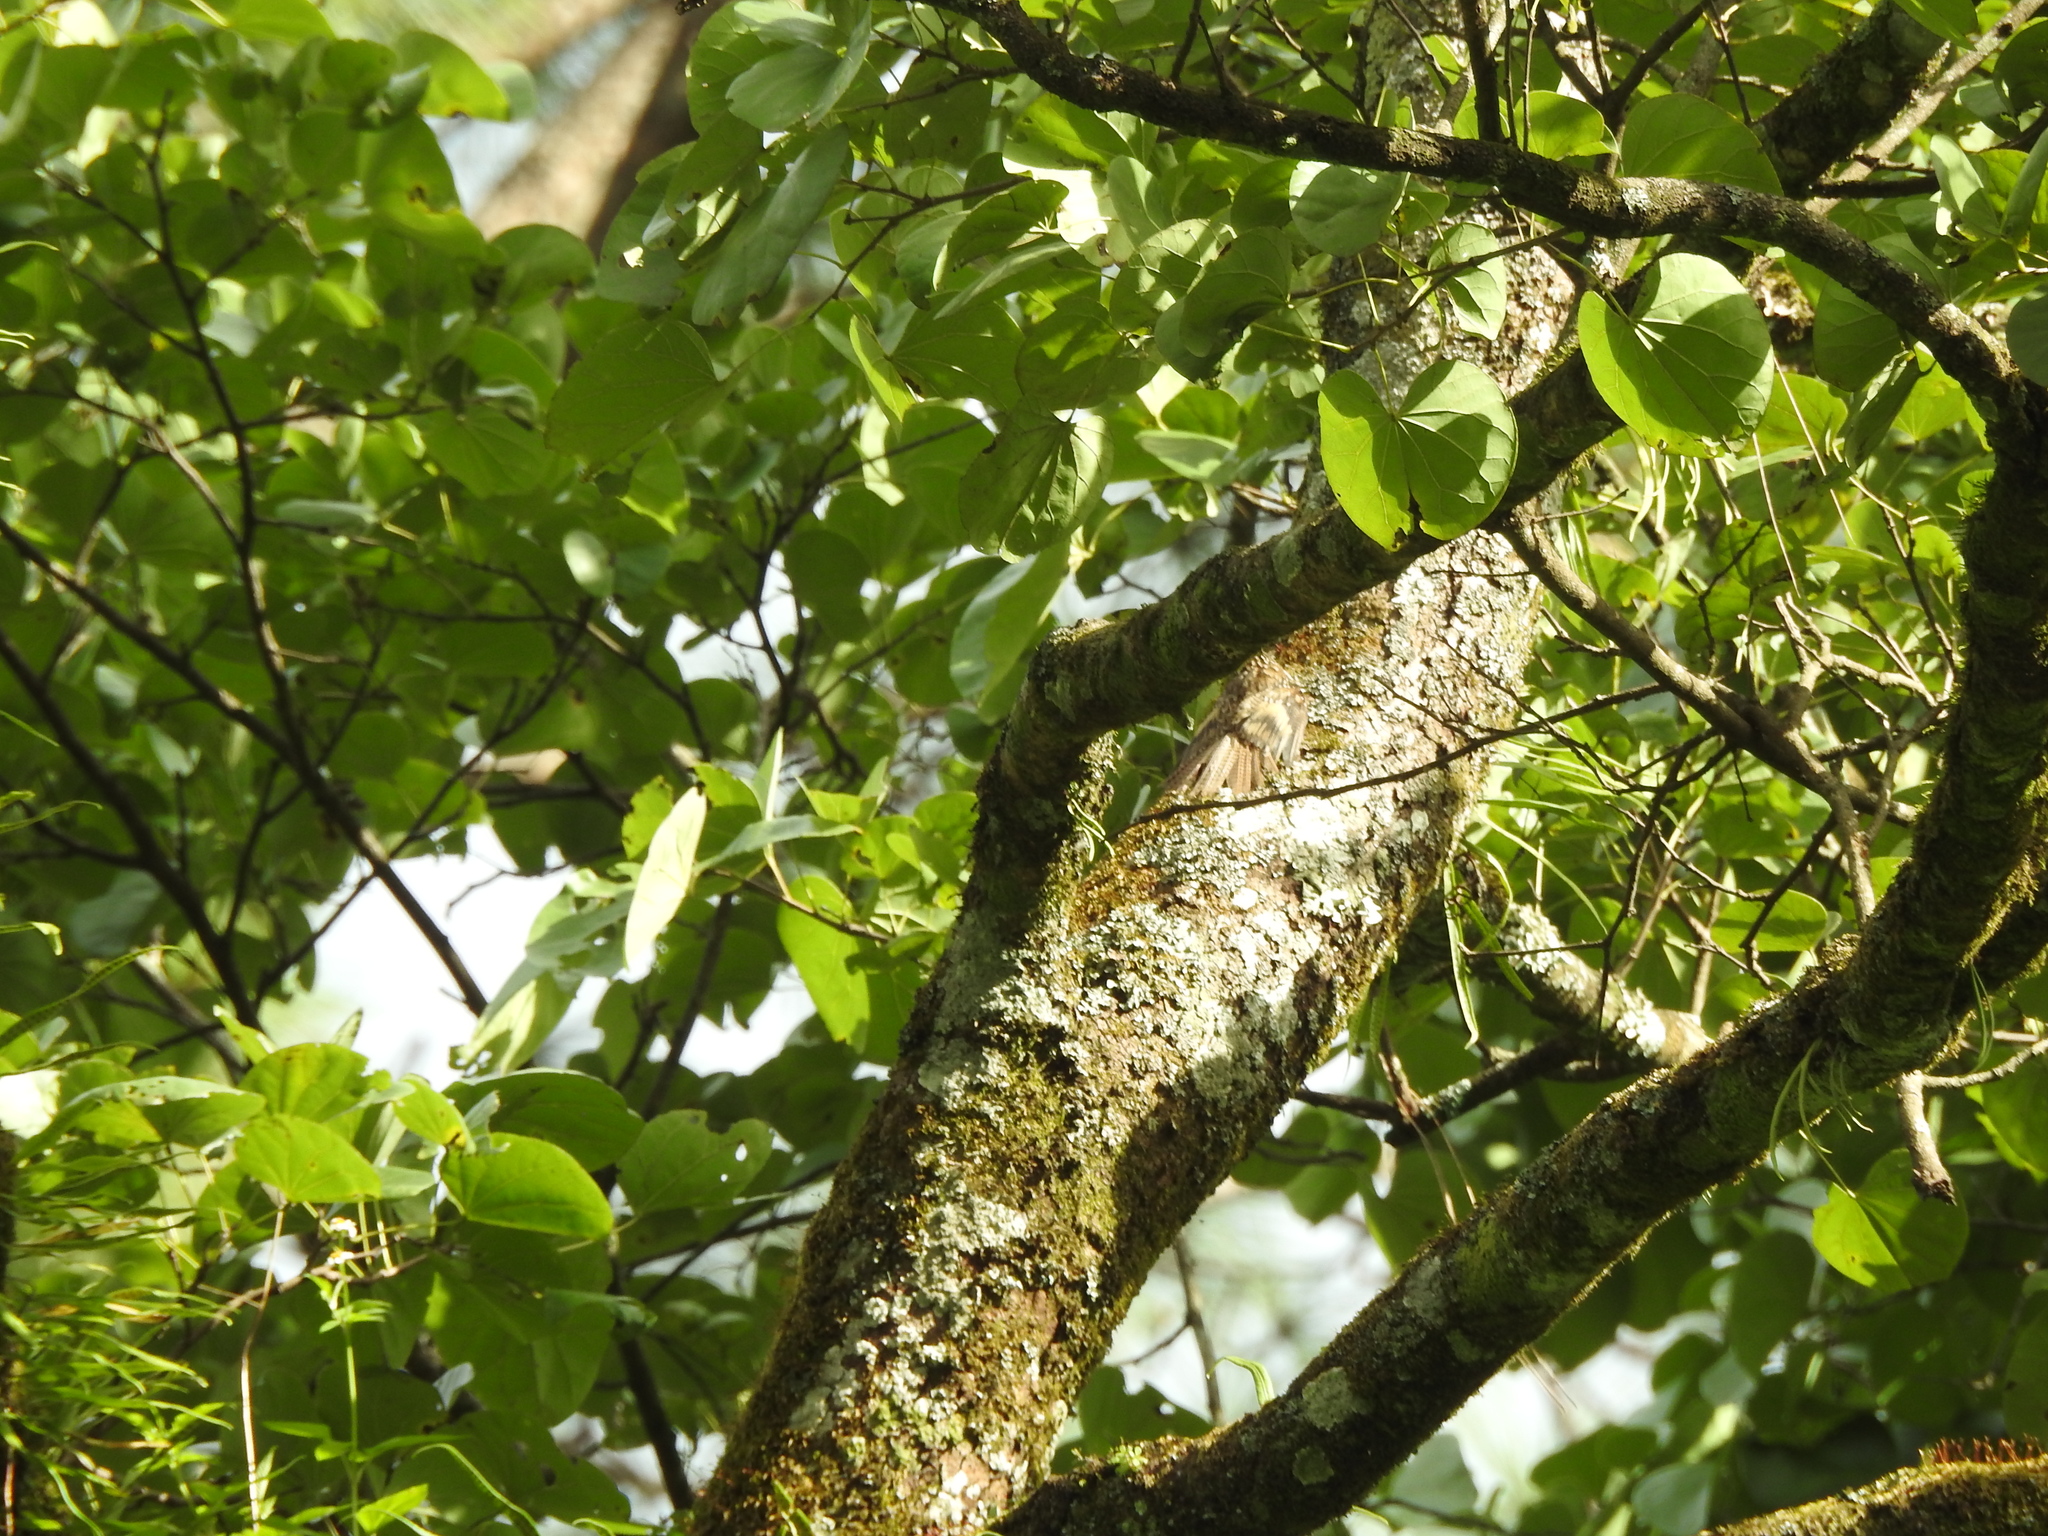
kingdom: Animalia
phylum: Chordata
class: Aves
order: Passeriformes
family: Certhiidae
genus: Certhia
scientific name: Certhia himalayana
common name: Bar-tailed treecreeper
